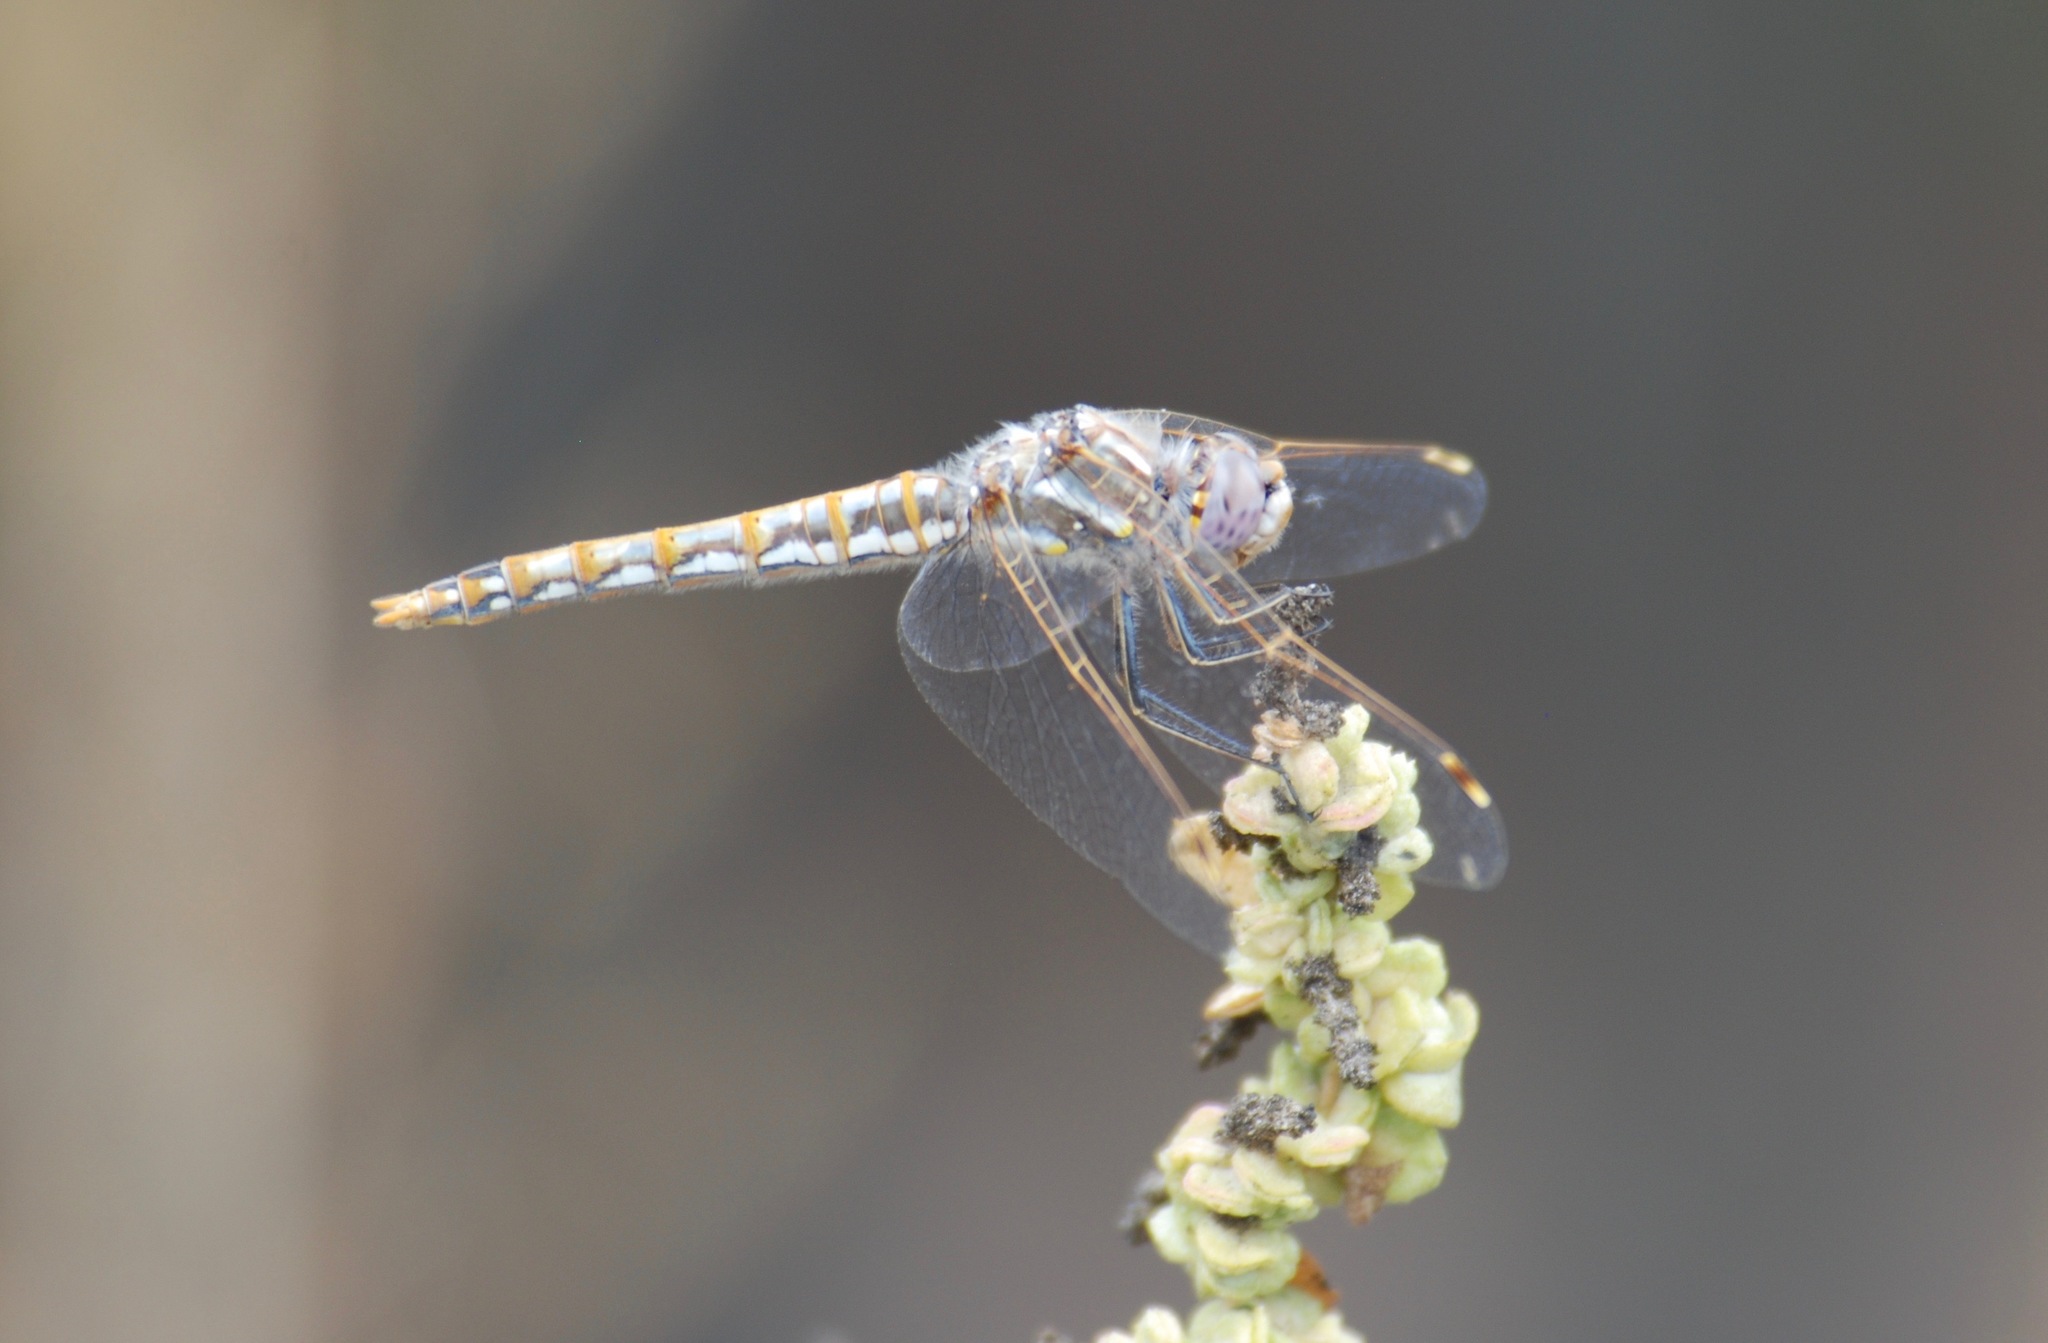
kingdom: Animalia
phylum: Arthropoda
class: Insecta
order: Odonata
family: Libellulidae
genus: Sympetrum
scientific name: Sympetrum corruptum
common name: Variegated meadowhawk
